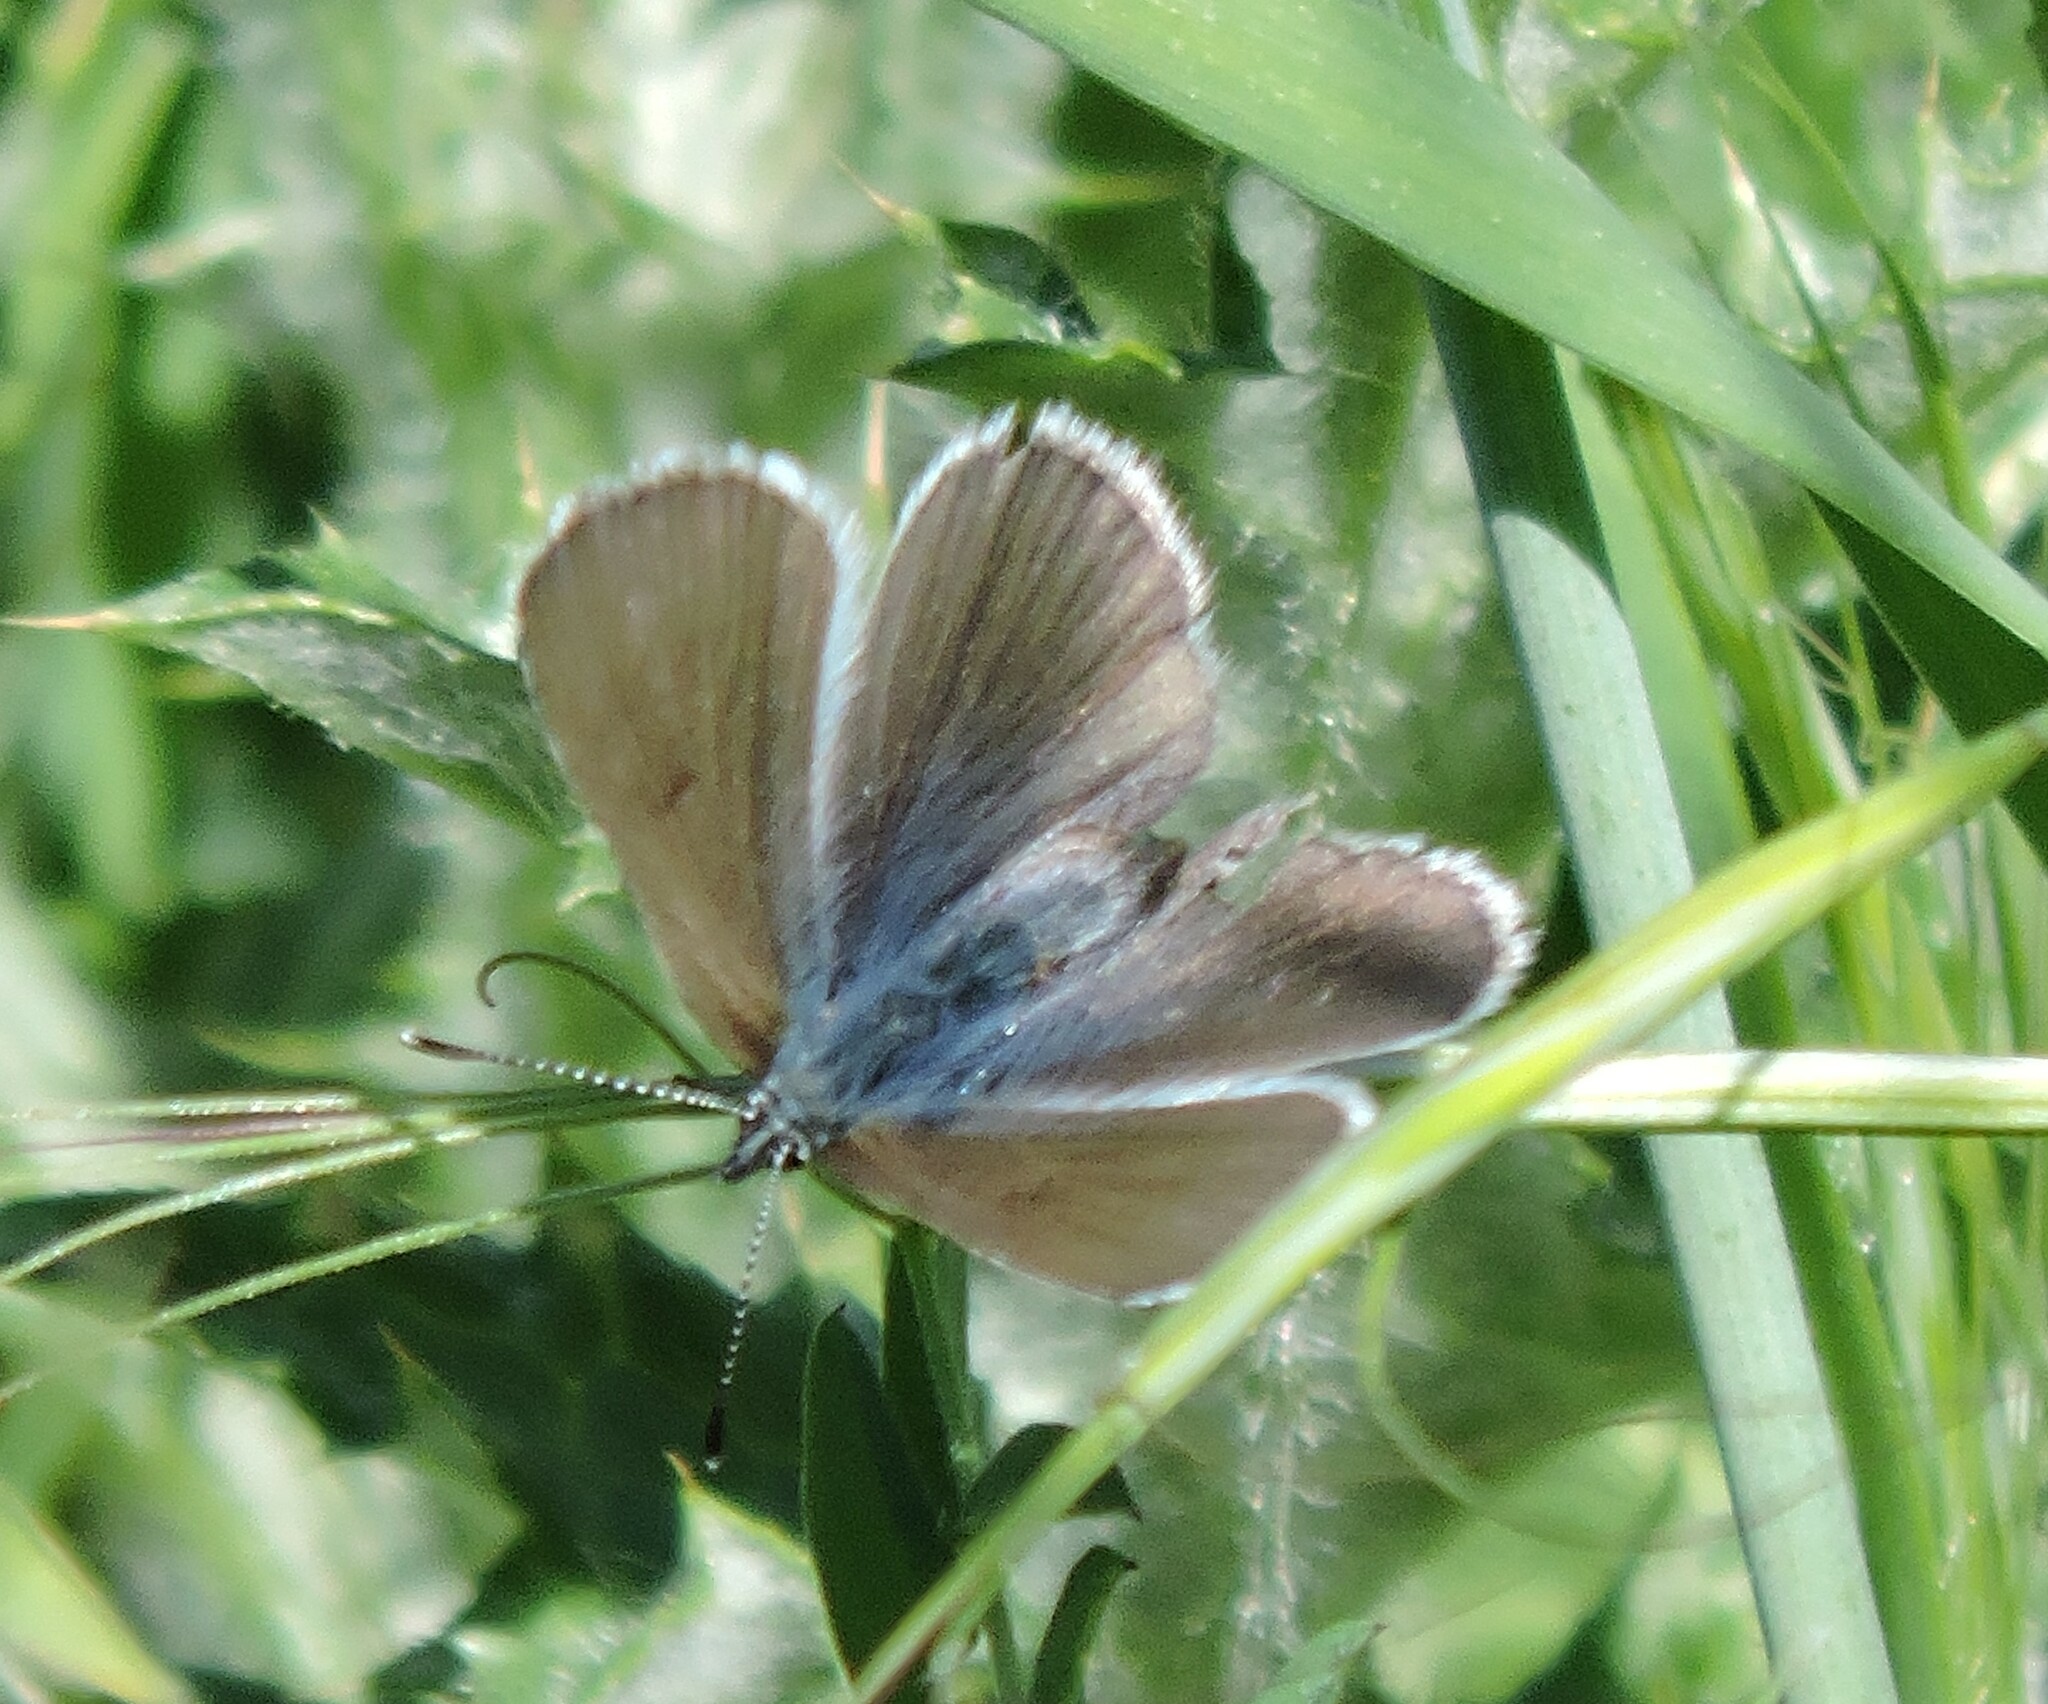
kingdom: Animalia
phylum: Arthropoda
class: Insecta
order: Lepidoptera
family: Lycaenidae
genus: Glaucopsyche
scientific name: Glaucopsyche lygdamus
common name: Silvery blue
